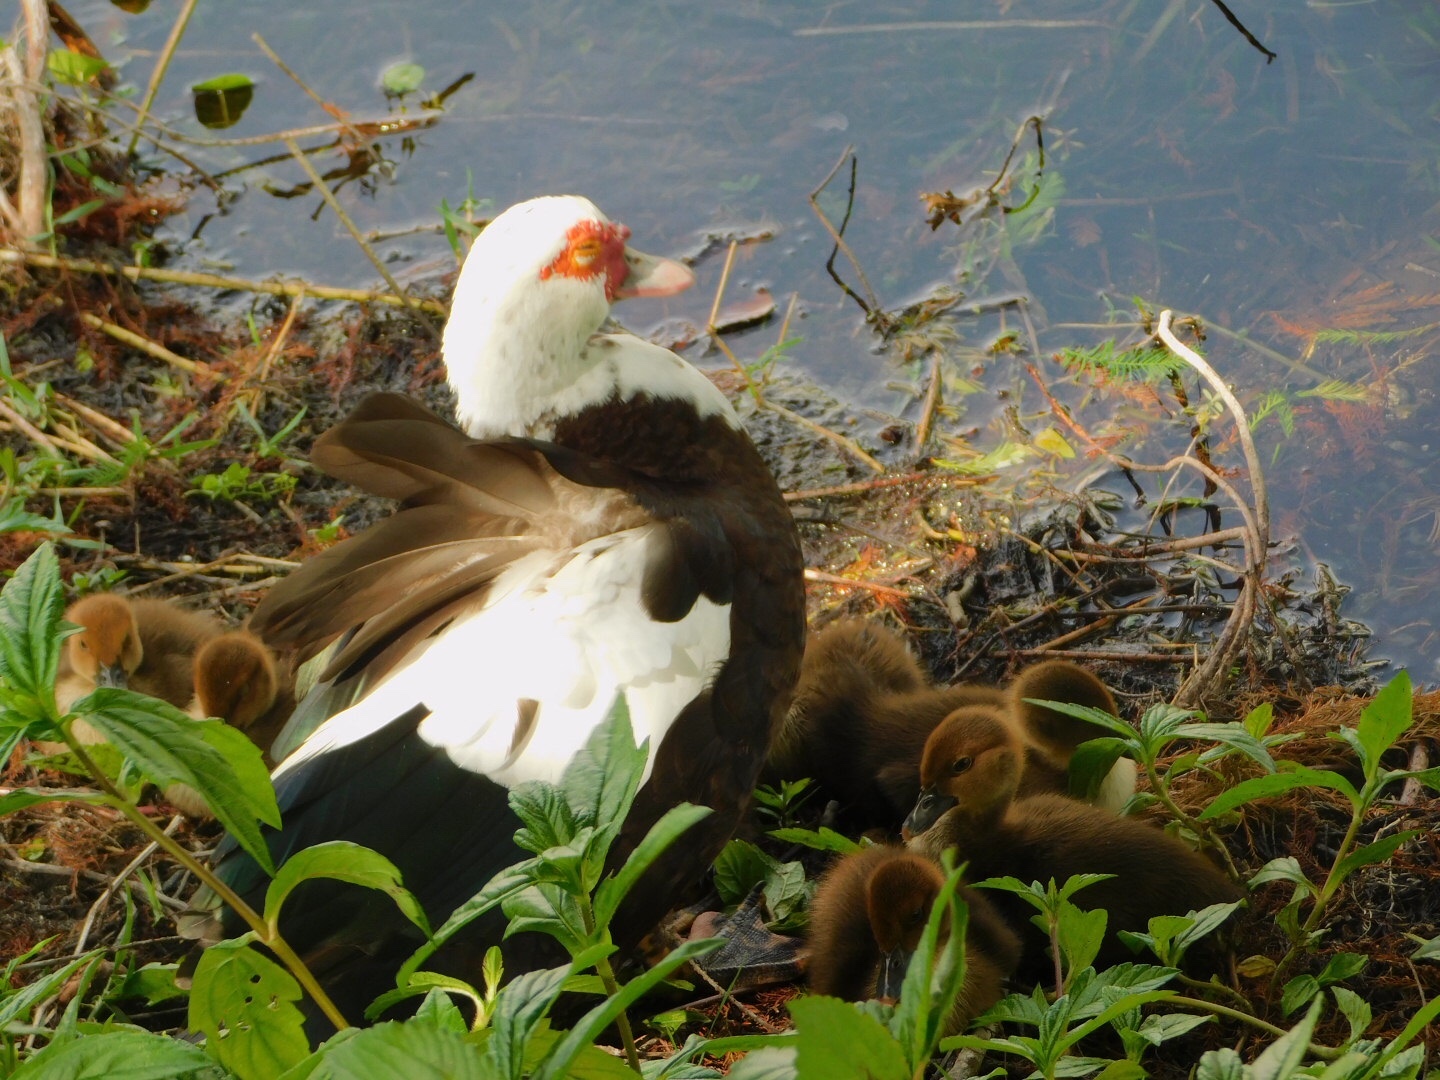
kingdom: Animalia
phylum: Chordata
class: Aves
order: Anseriformes
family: Anatidae
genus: Cairina
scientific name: Cairina moschata
